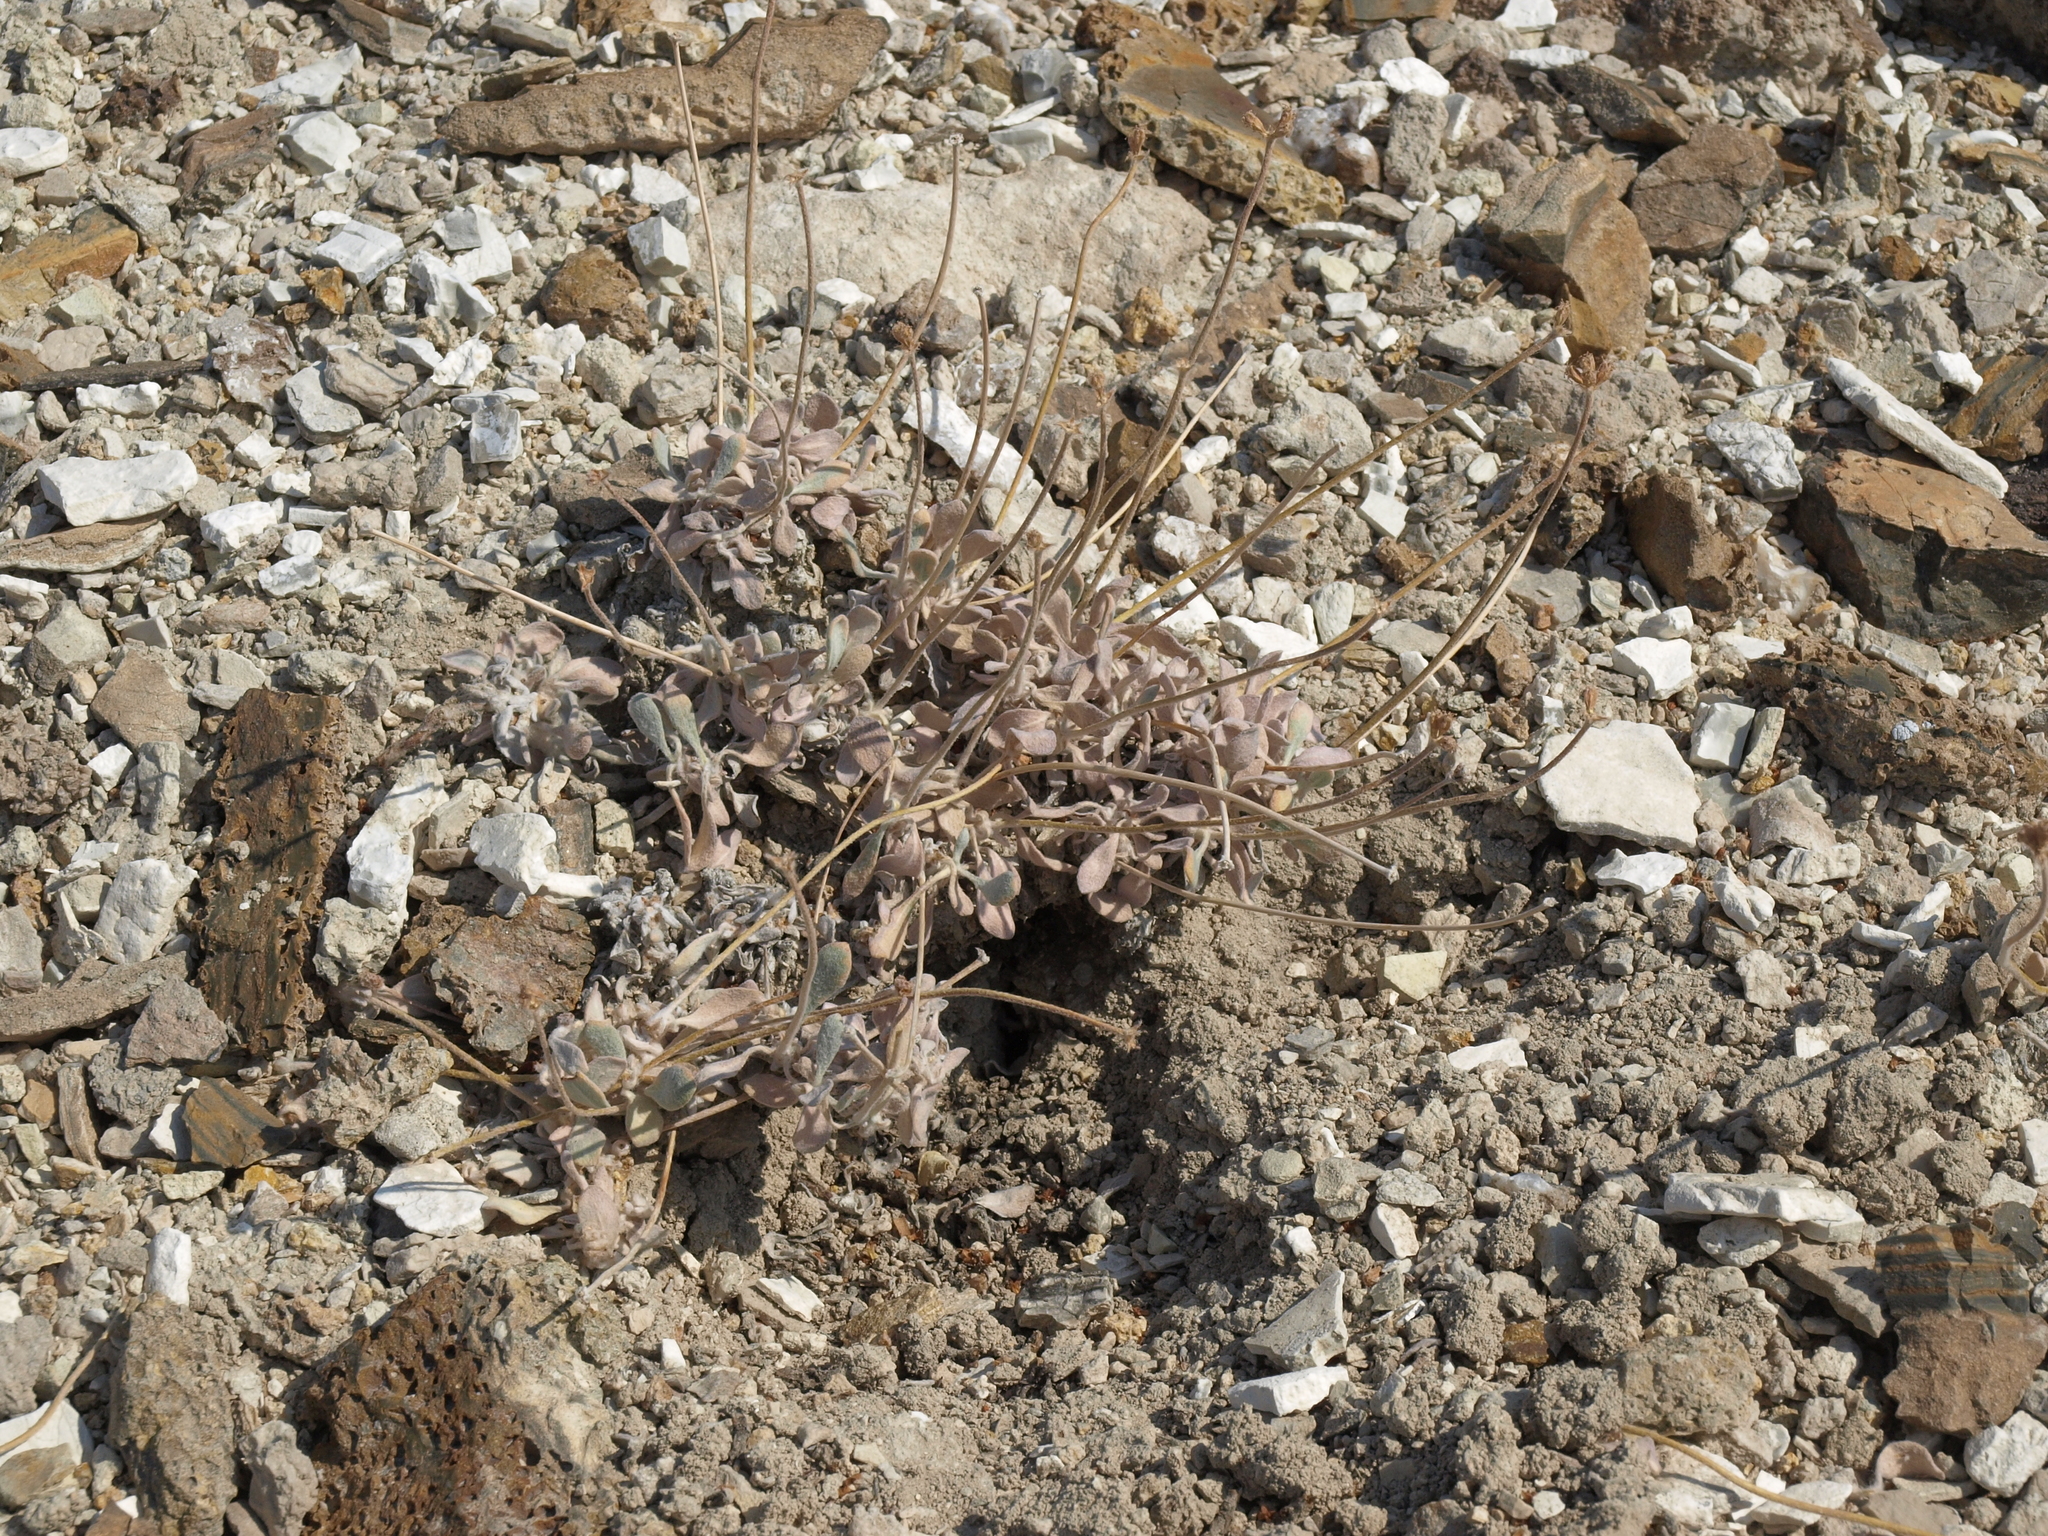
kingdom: Plantae
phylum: Tracheophyta
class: Magnoliopsida
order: Caryophyllales
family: Polygonaceae
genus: Eriogonum
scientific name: Eriogonum tiehmii
